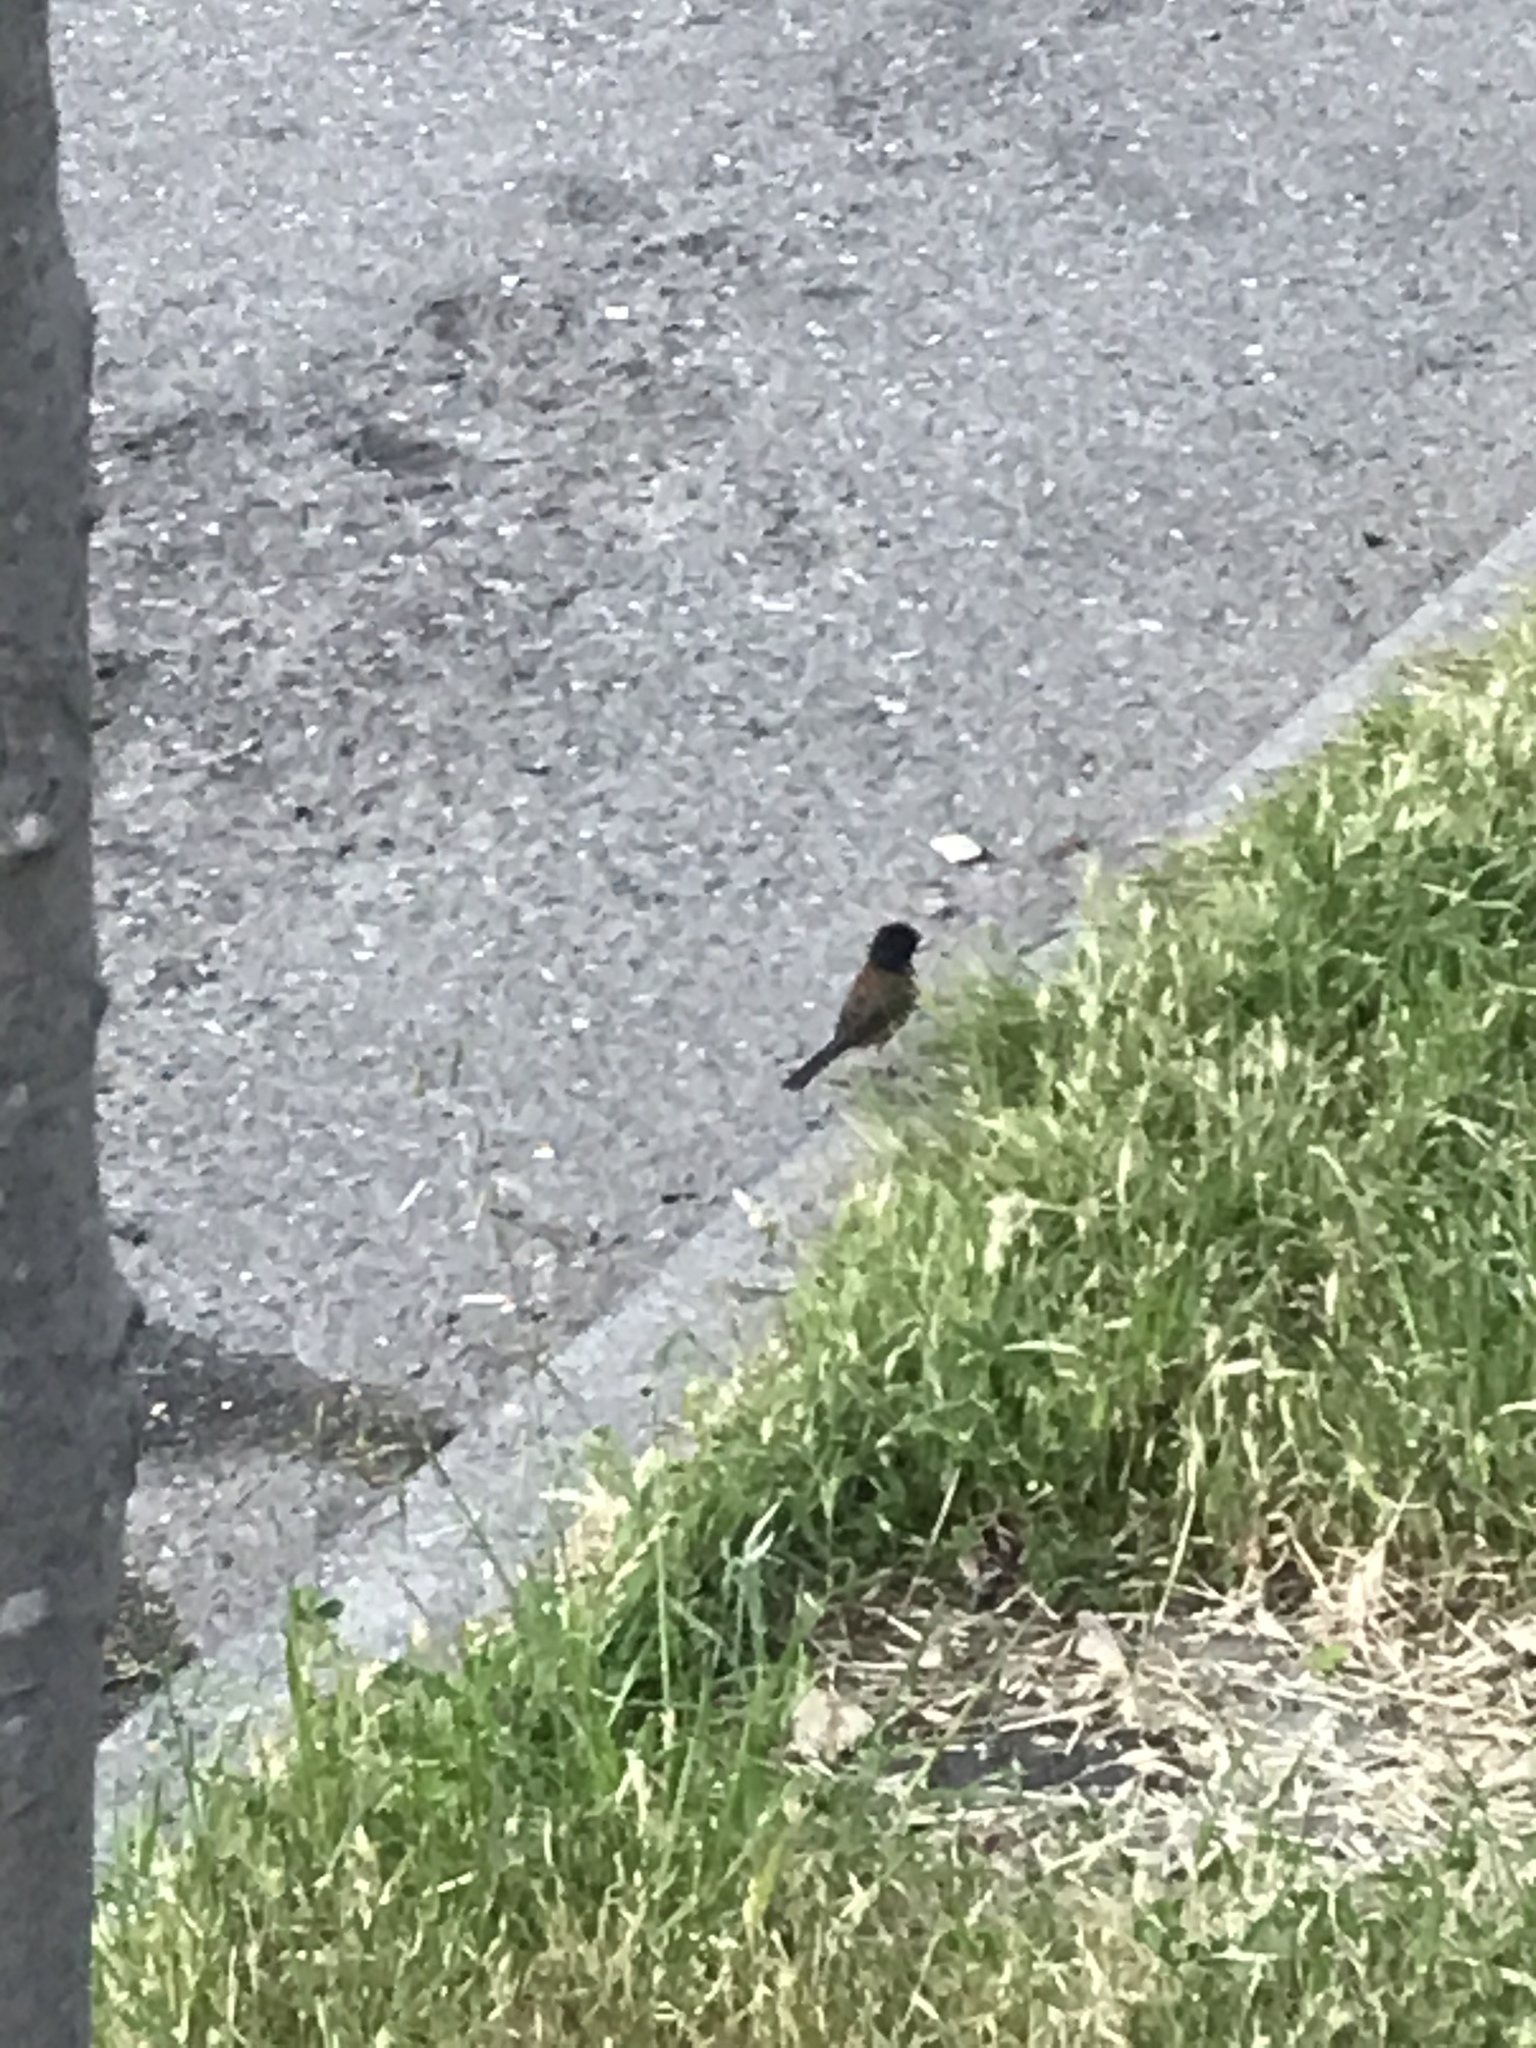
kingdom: Animalia
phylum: Chordata
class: Aves
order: Passeriformes
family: Passerellidae
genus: Junco
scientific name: Junco hyemalis
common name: Dark-eyed junco
